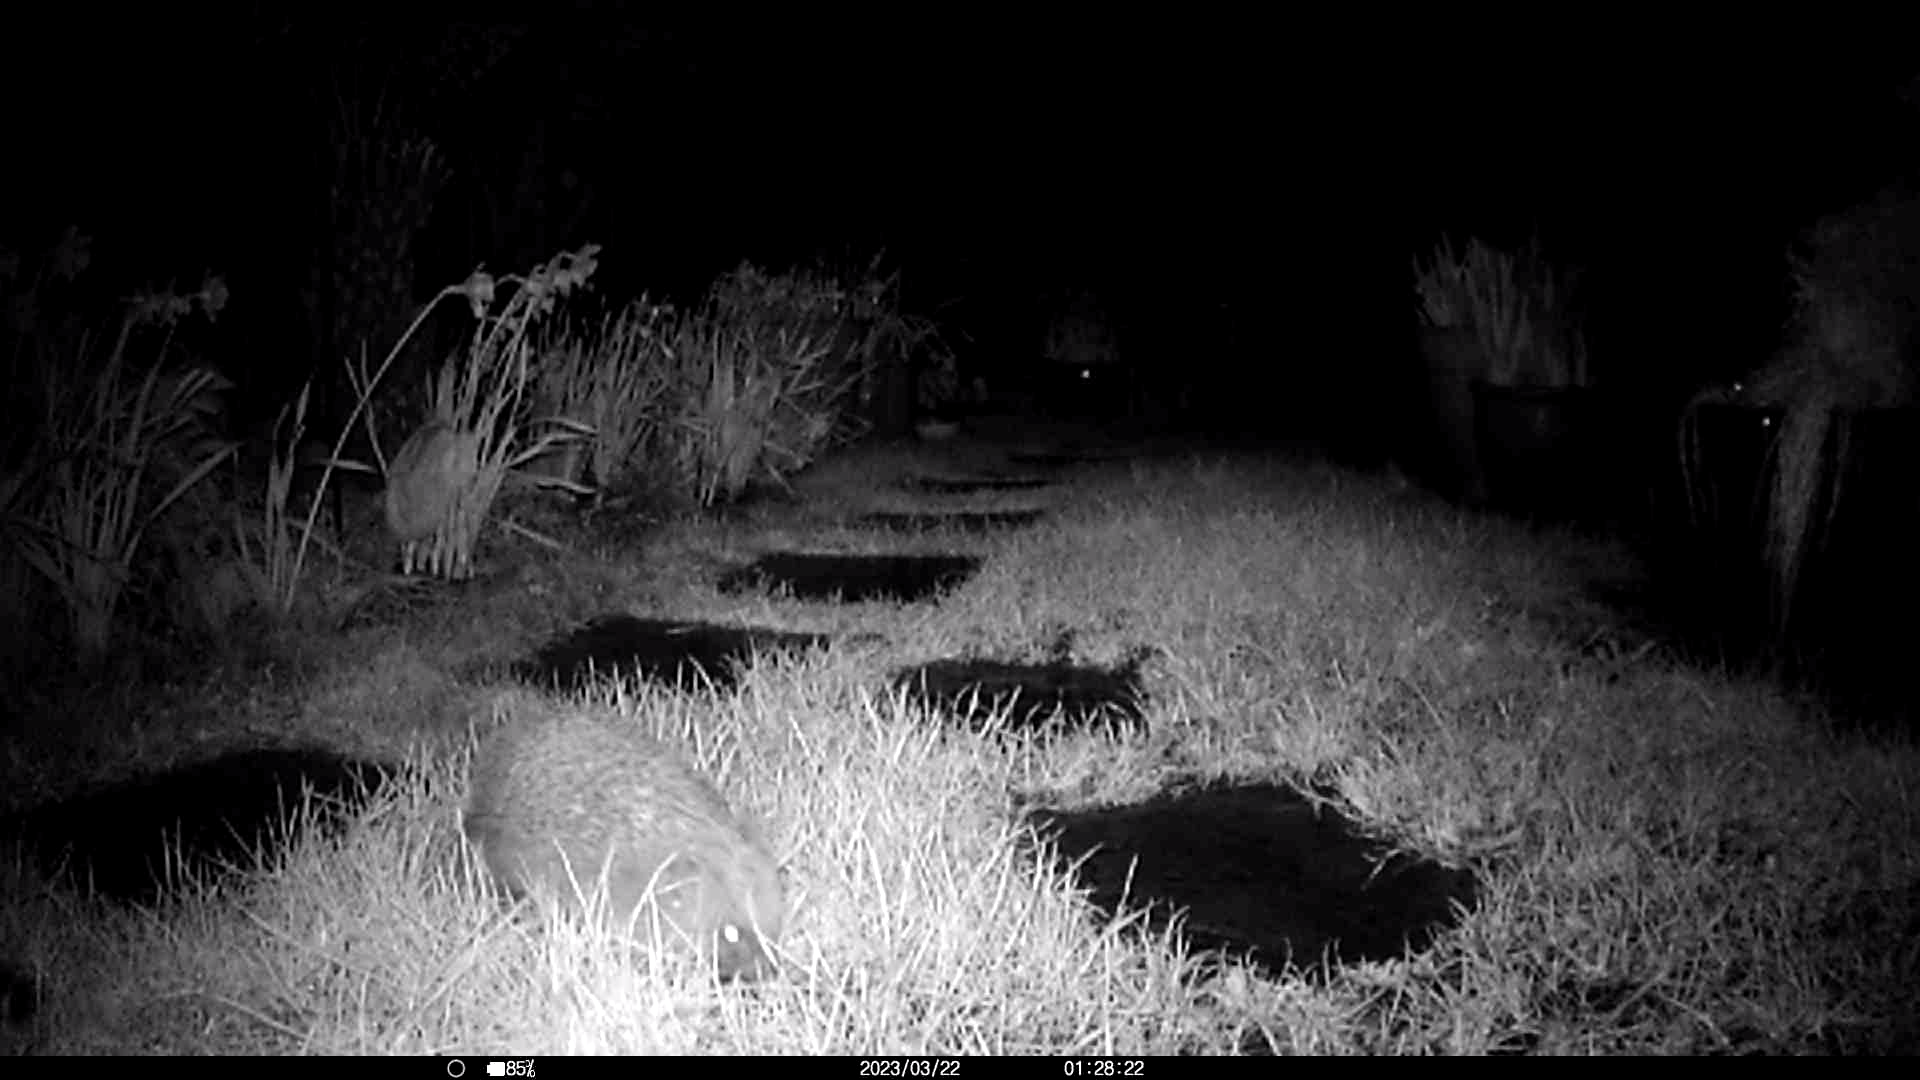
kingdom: Animalia
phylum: Chordata
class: Mammalia
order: Erinaceomorpha
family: Erinaceidae
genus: Erinaceus
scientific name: Erinaceus europaeus
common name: West european hedgehog
